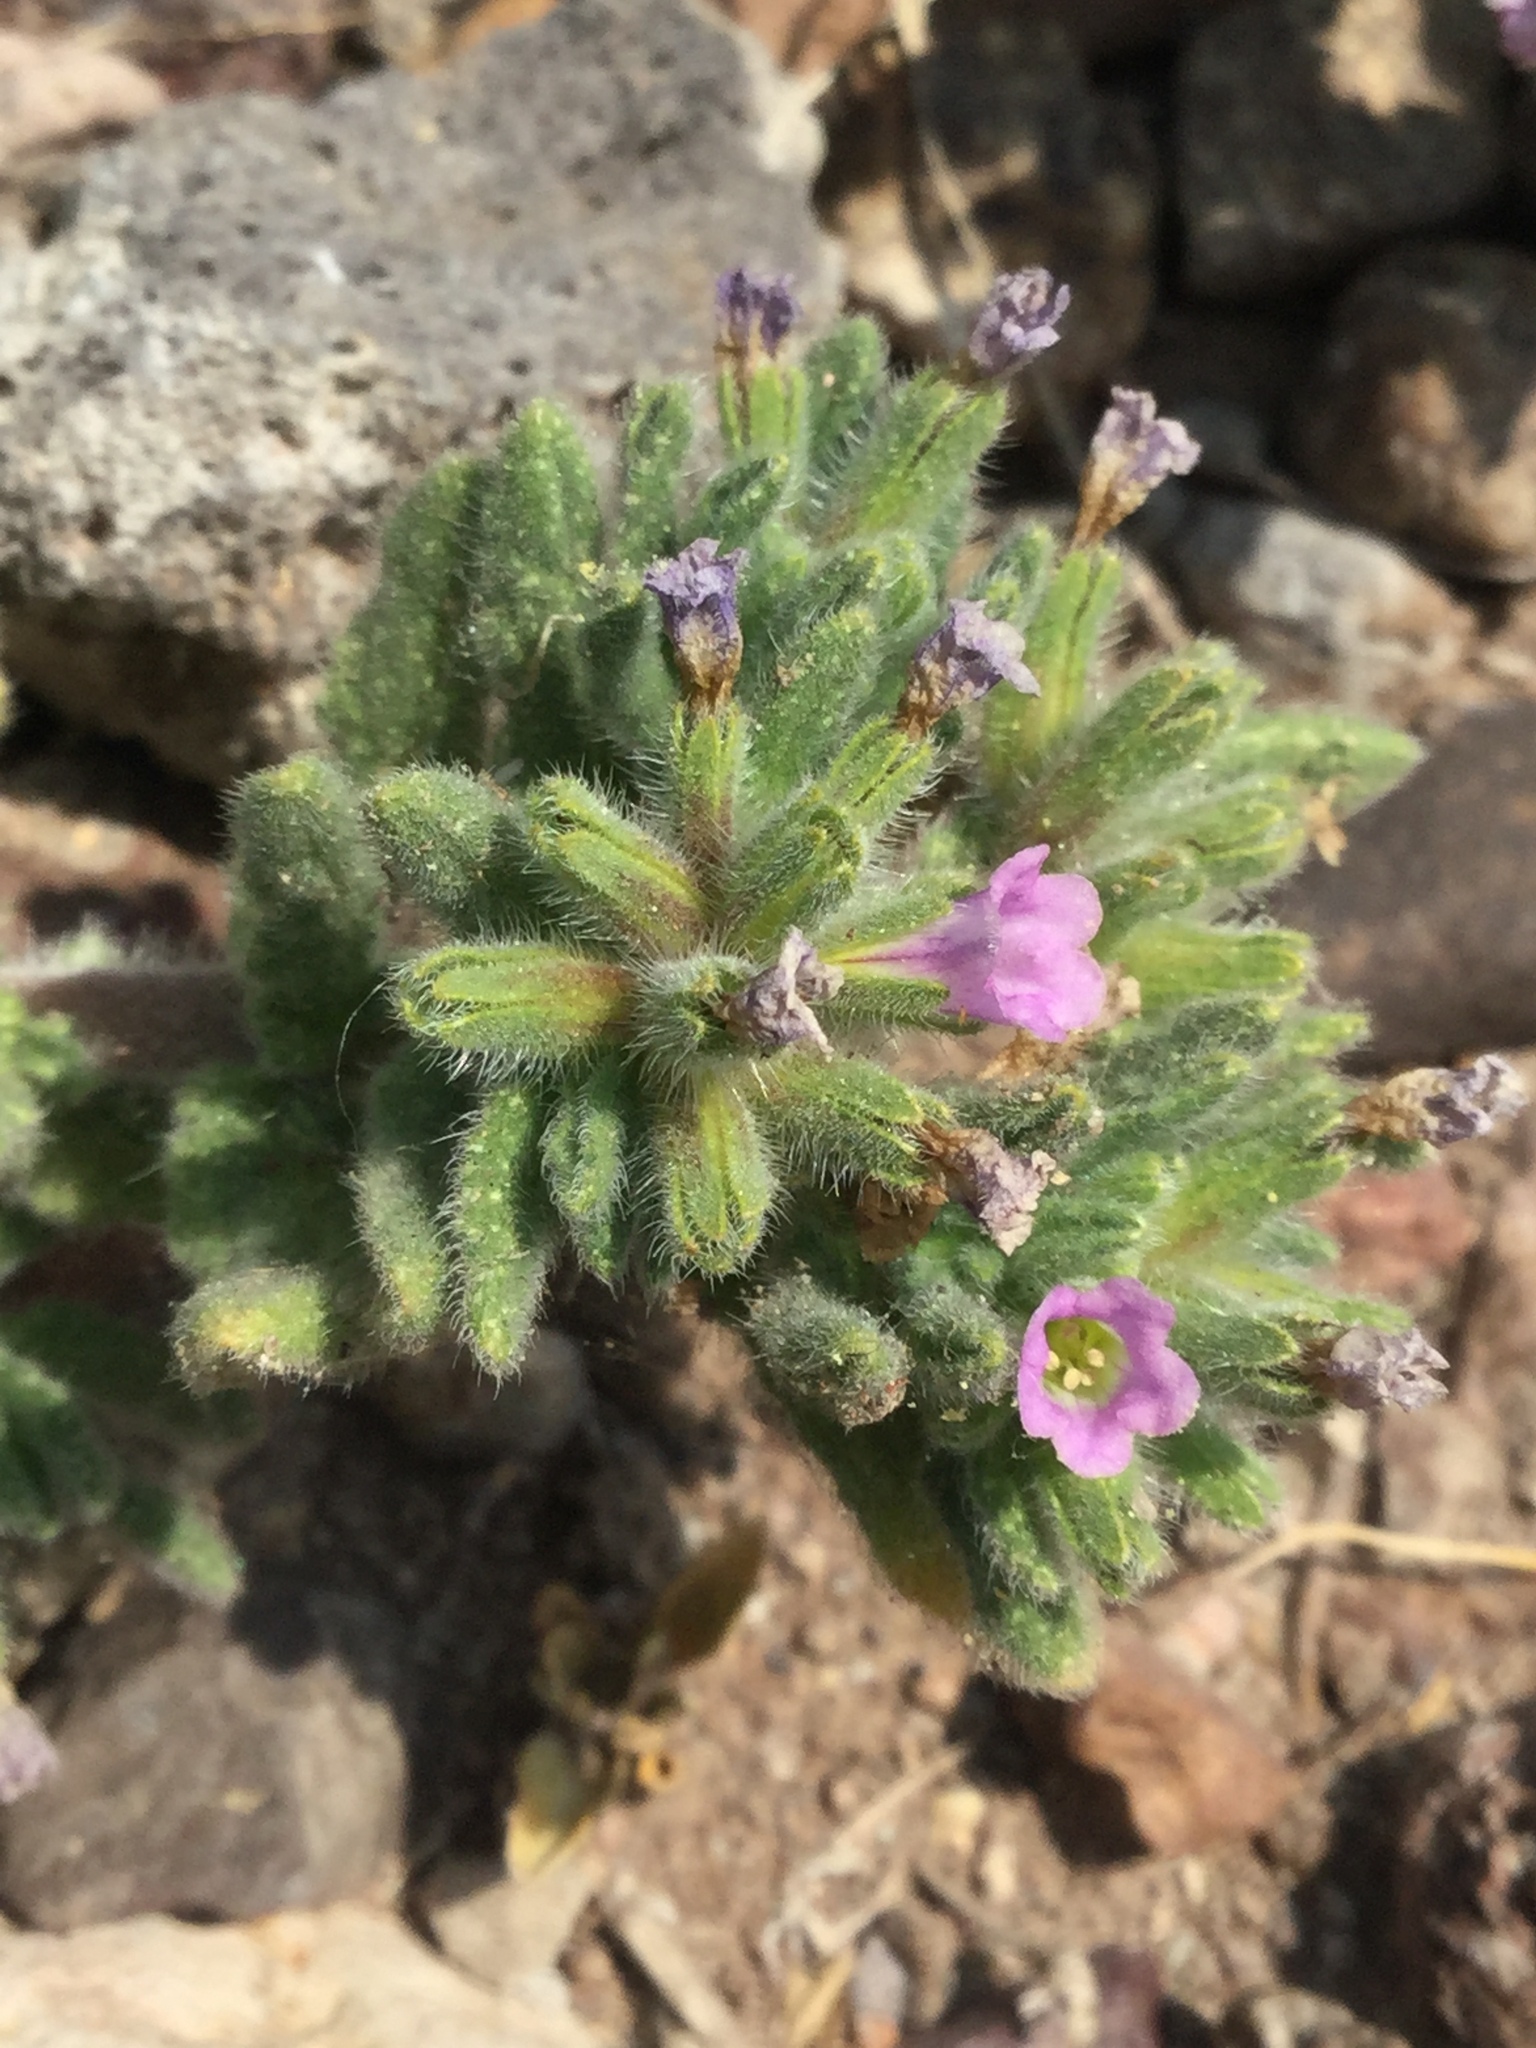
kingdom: Plantae
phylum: Tracheophyta
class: Magnoliopsida
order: Boraginales
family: Namaceae
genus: Nama
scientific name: Nama hispida
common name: Bristly nama
